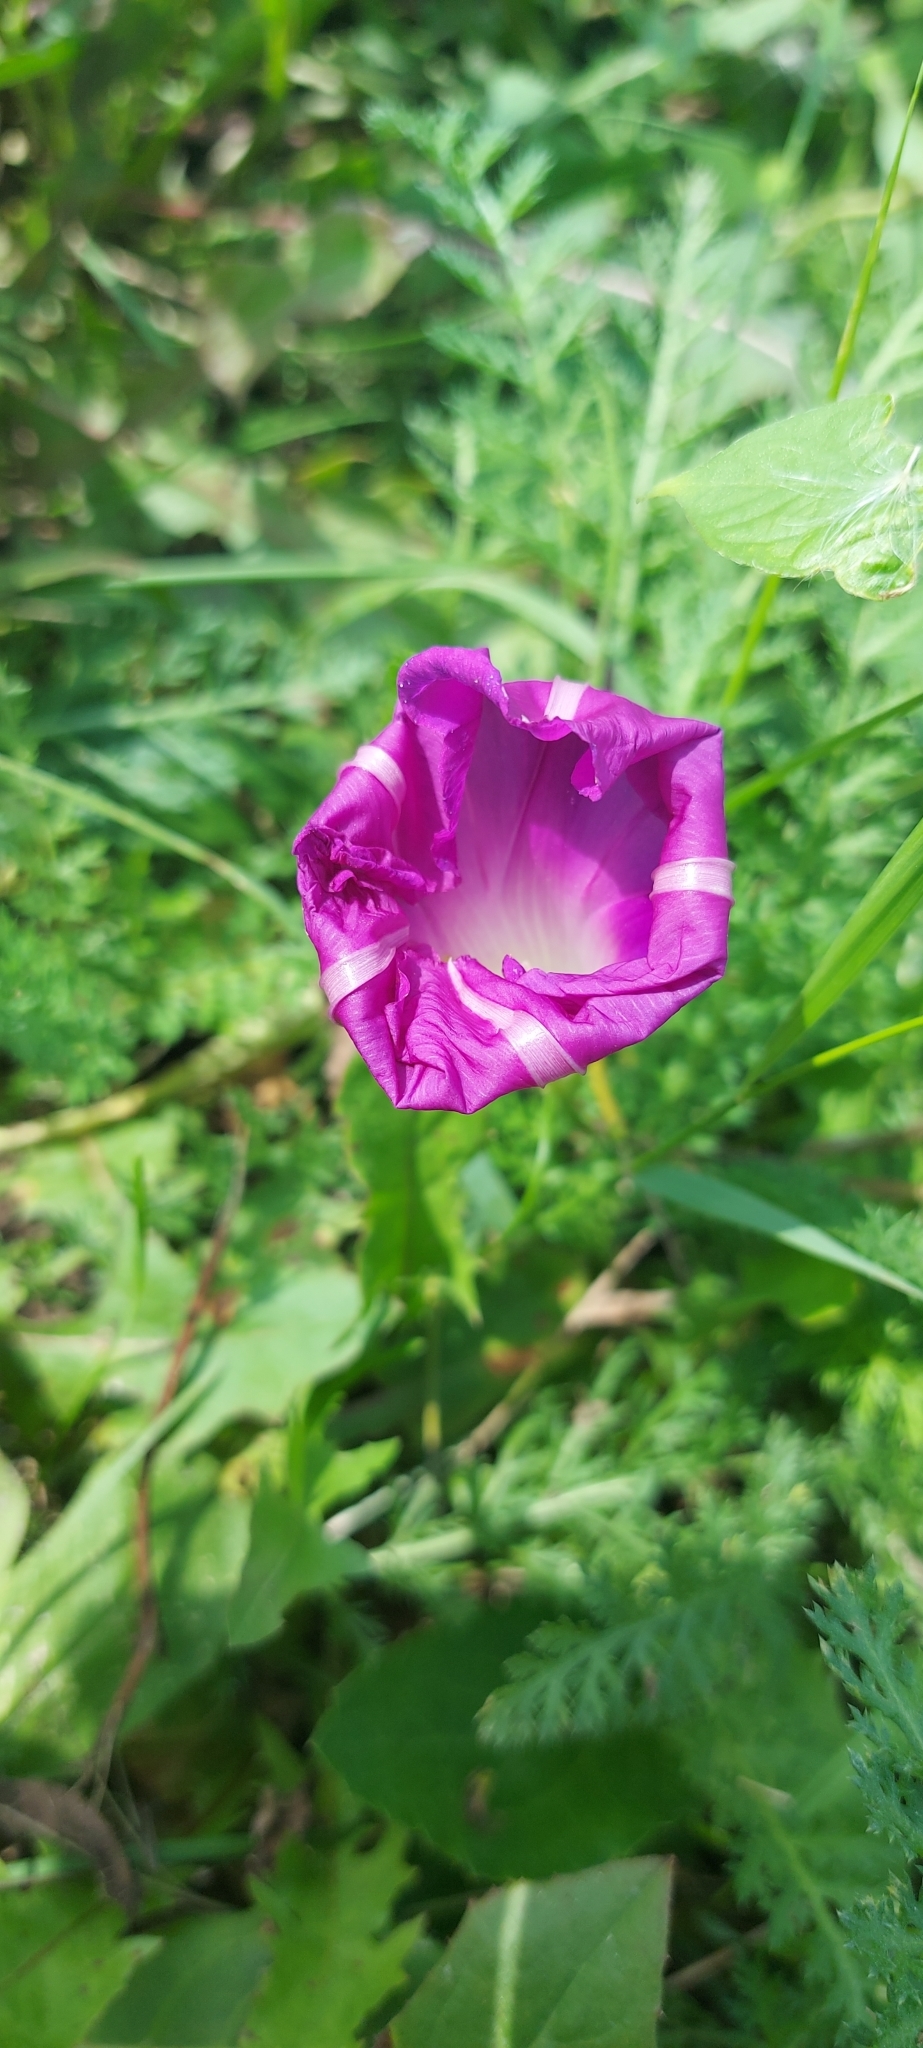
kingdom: Plantae
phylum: Tracheophyta
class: Magnoliopsida
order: Solanales
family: Convolvulaceae
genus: Ipomoea
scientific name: Ipomoea purpurea
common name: Common morning-glory
